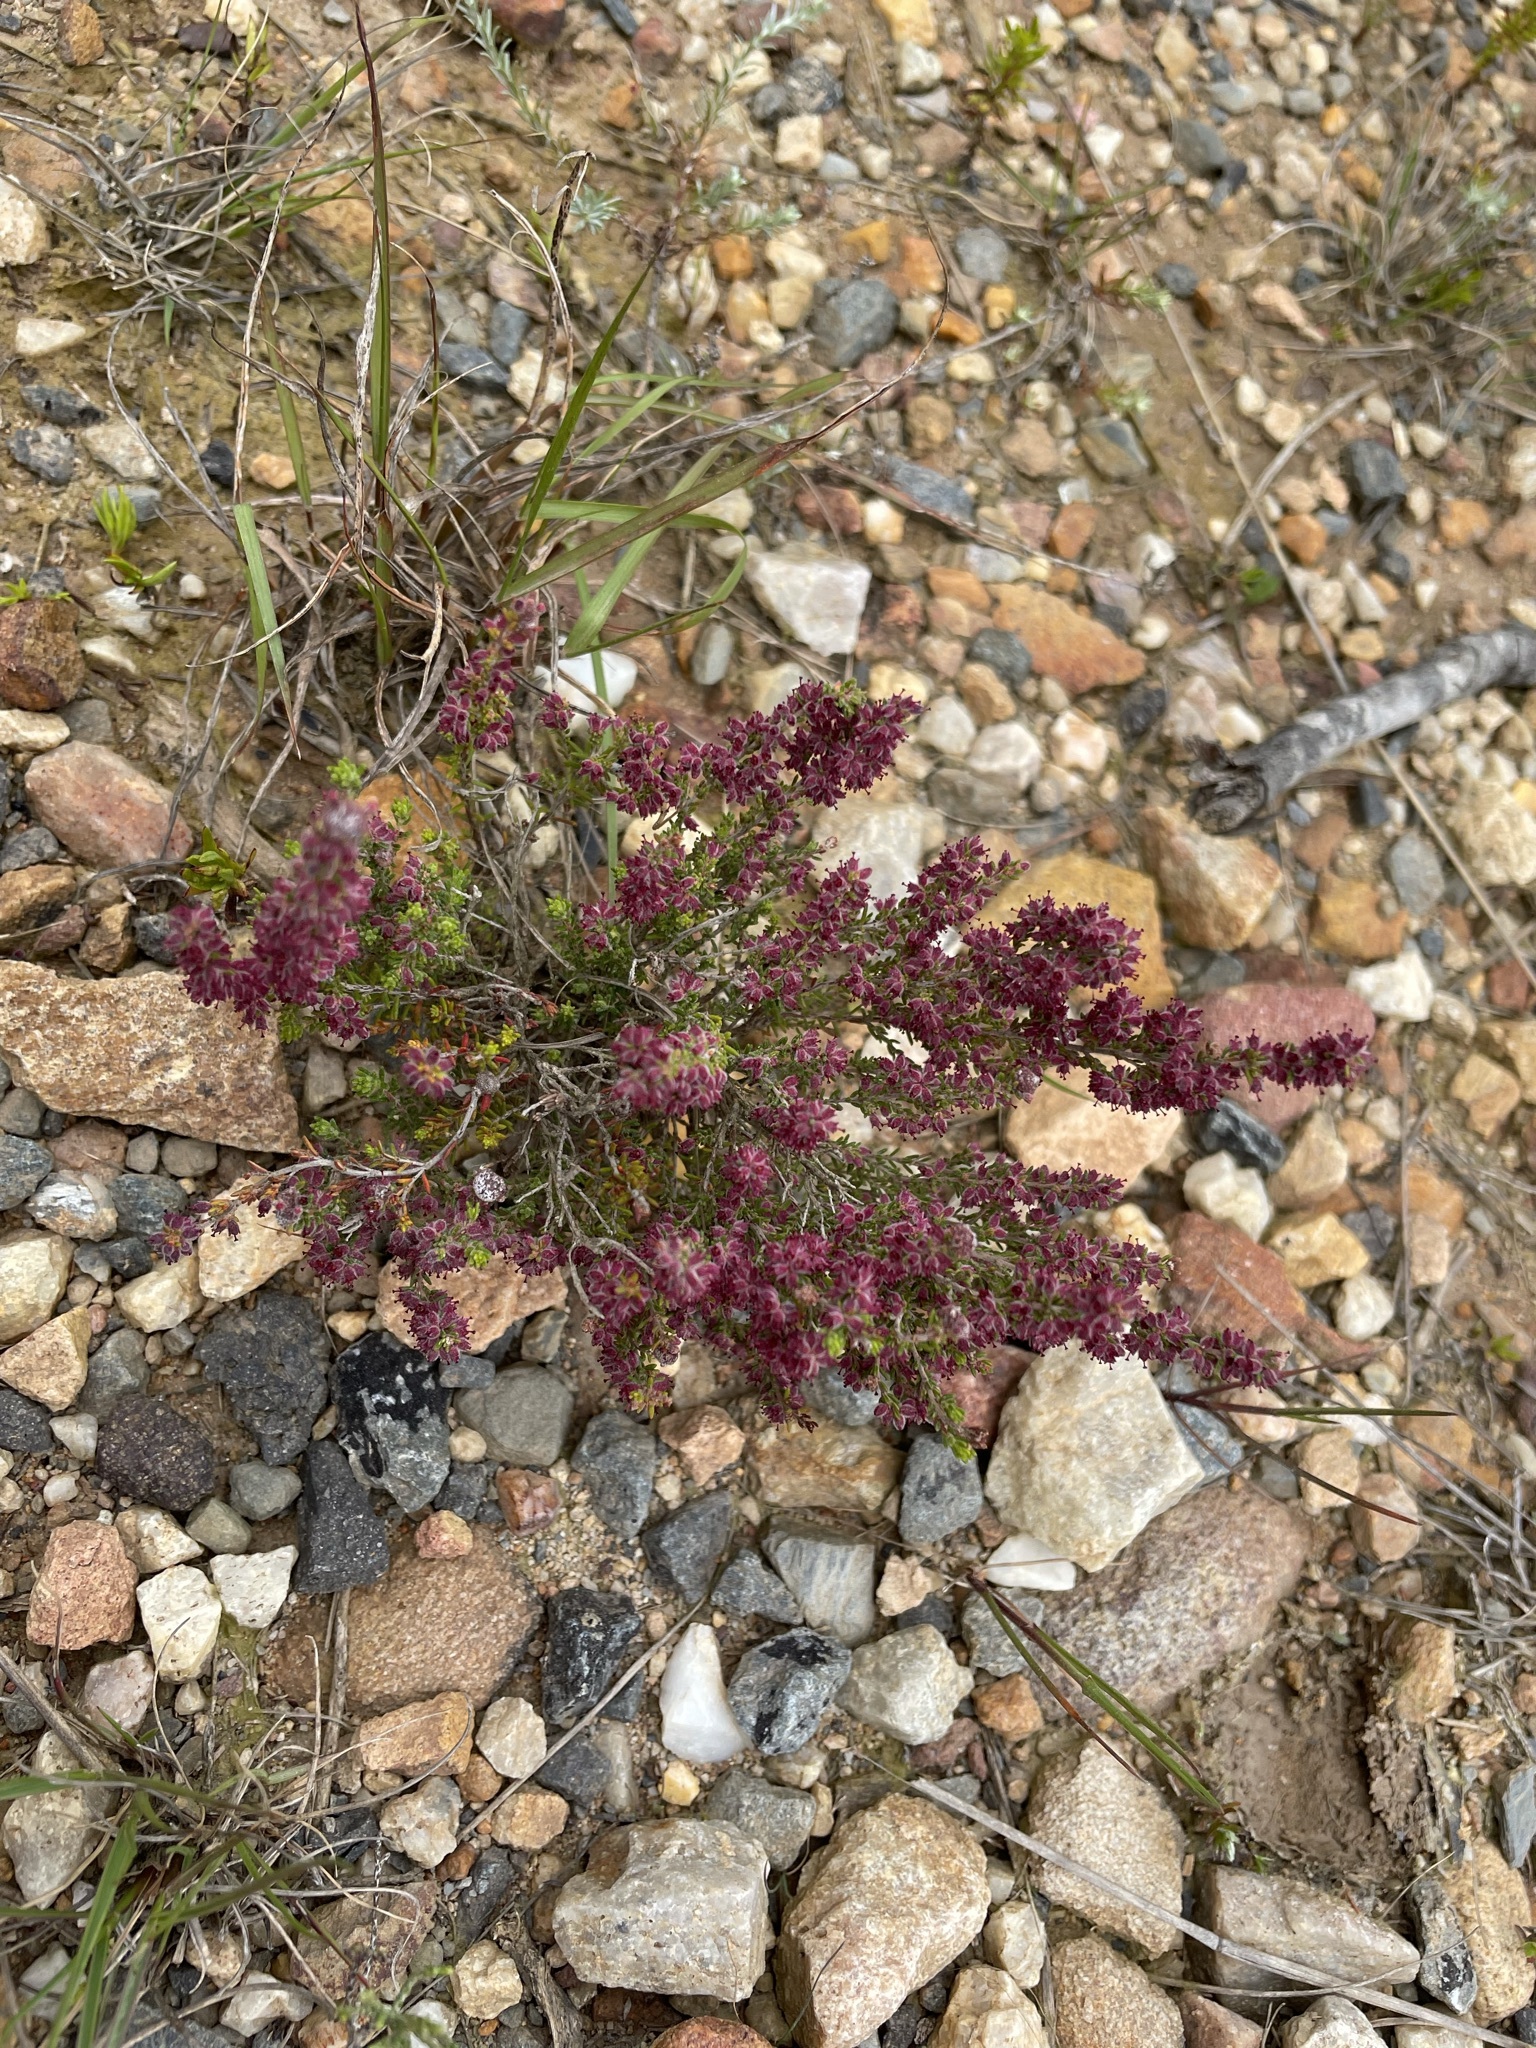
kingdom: Plantae
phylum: Tracheophyta
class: Magnoliopsida
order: Ericales
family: Ericaceae
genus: Erica
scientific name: Erica puberuliflora
